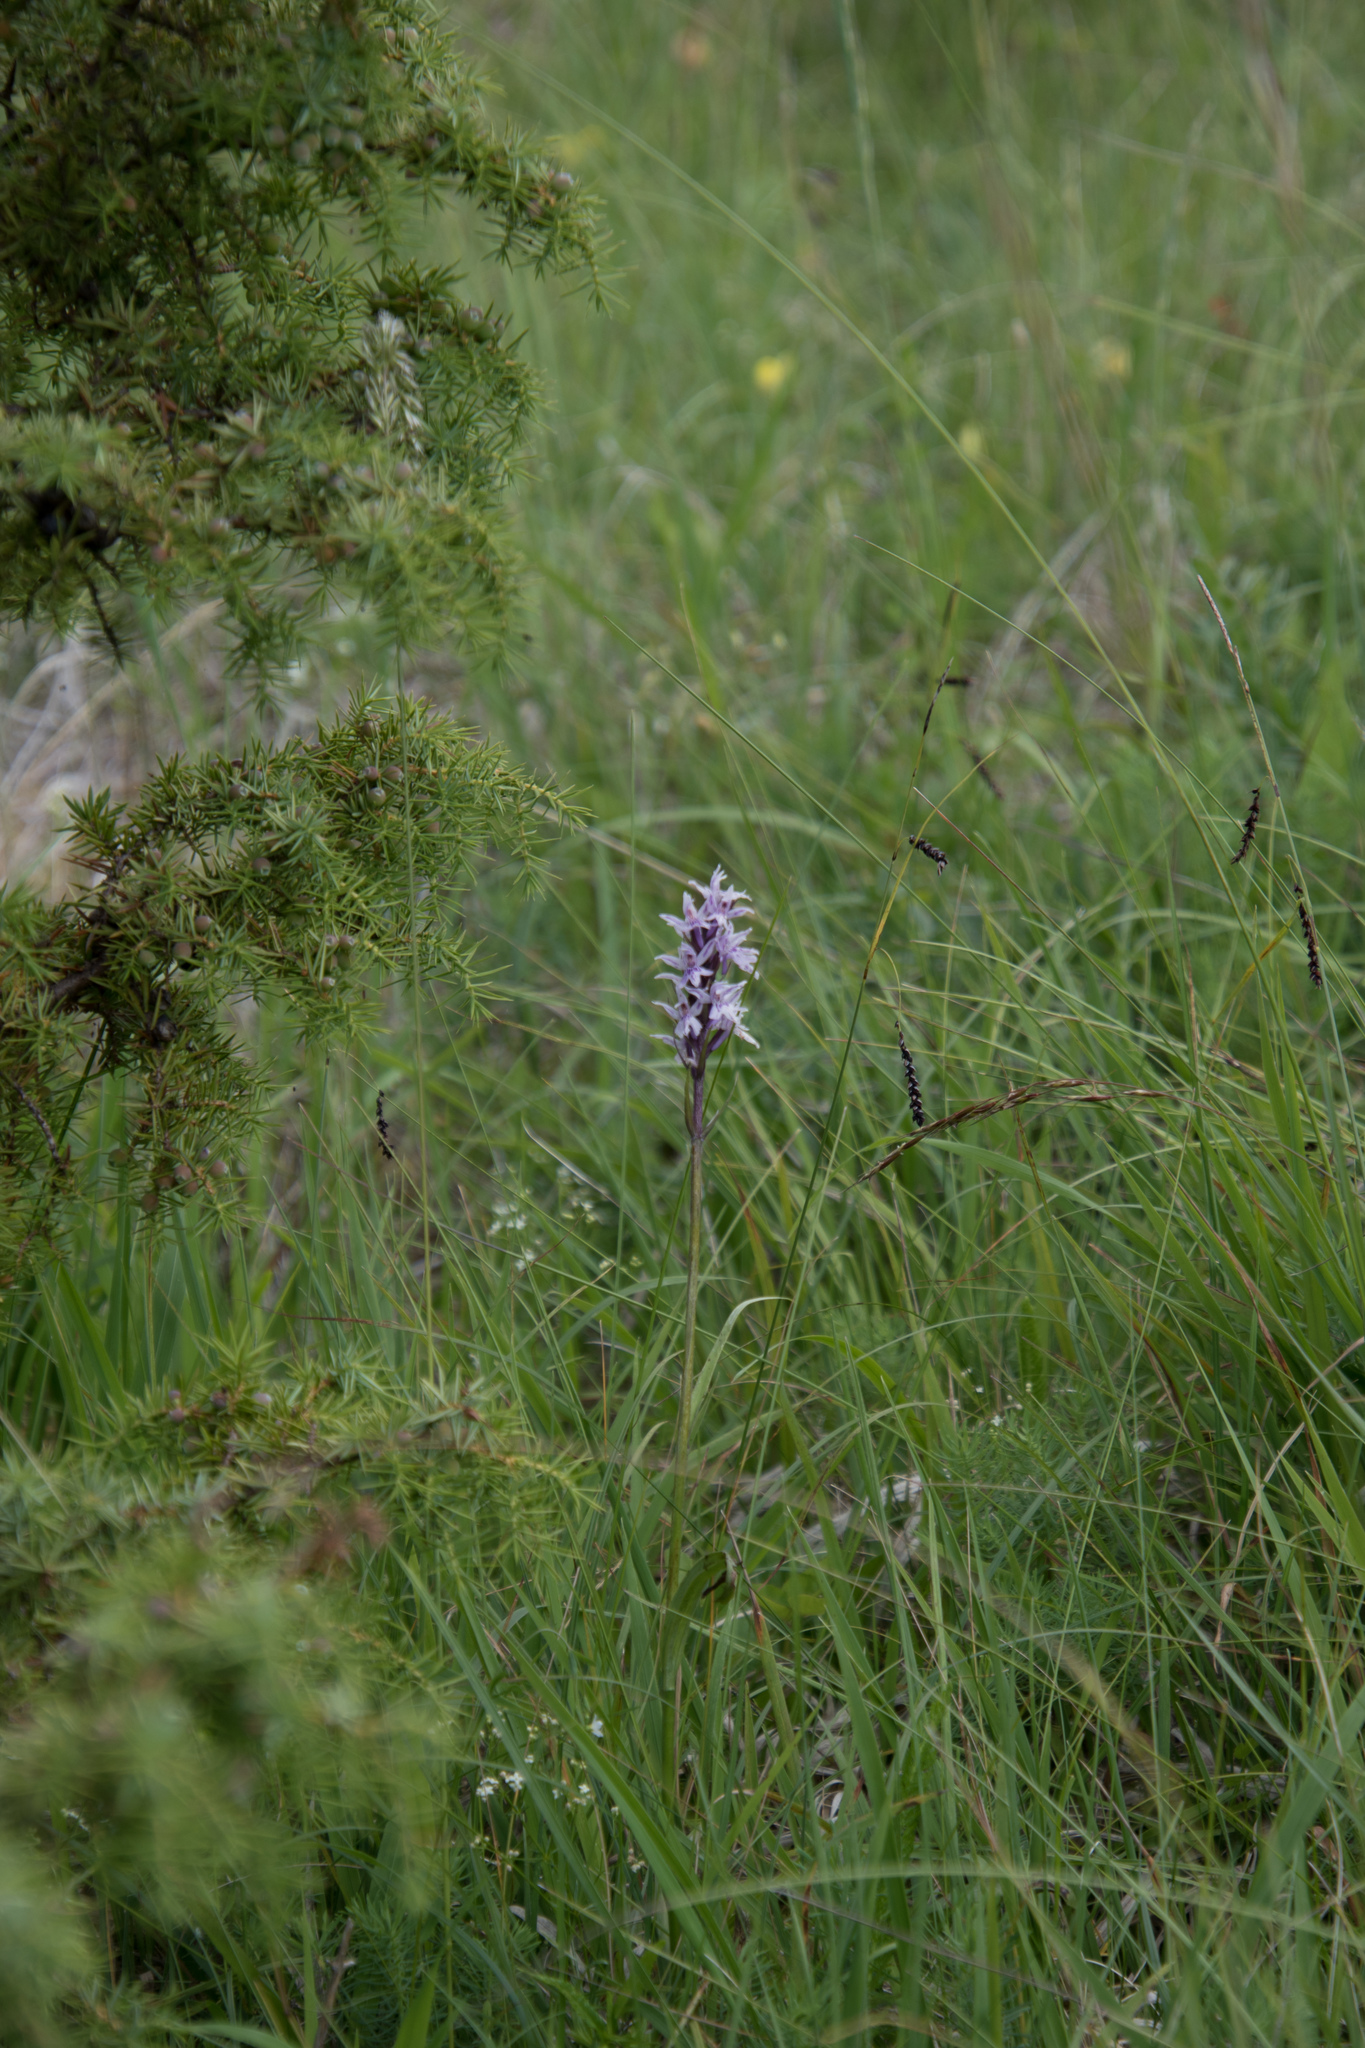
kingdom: Plantae
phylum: Tracheophyta
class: Liliopsida
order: Asparagales
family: Orchidaceae
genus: Dactylorhiza
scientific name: Dactylorhiza maculata
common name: Heath spotted-orchid
